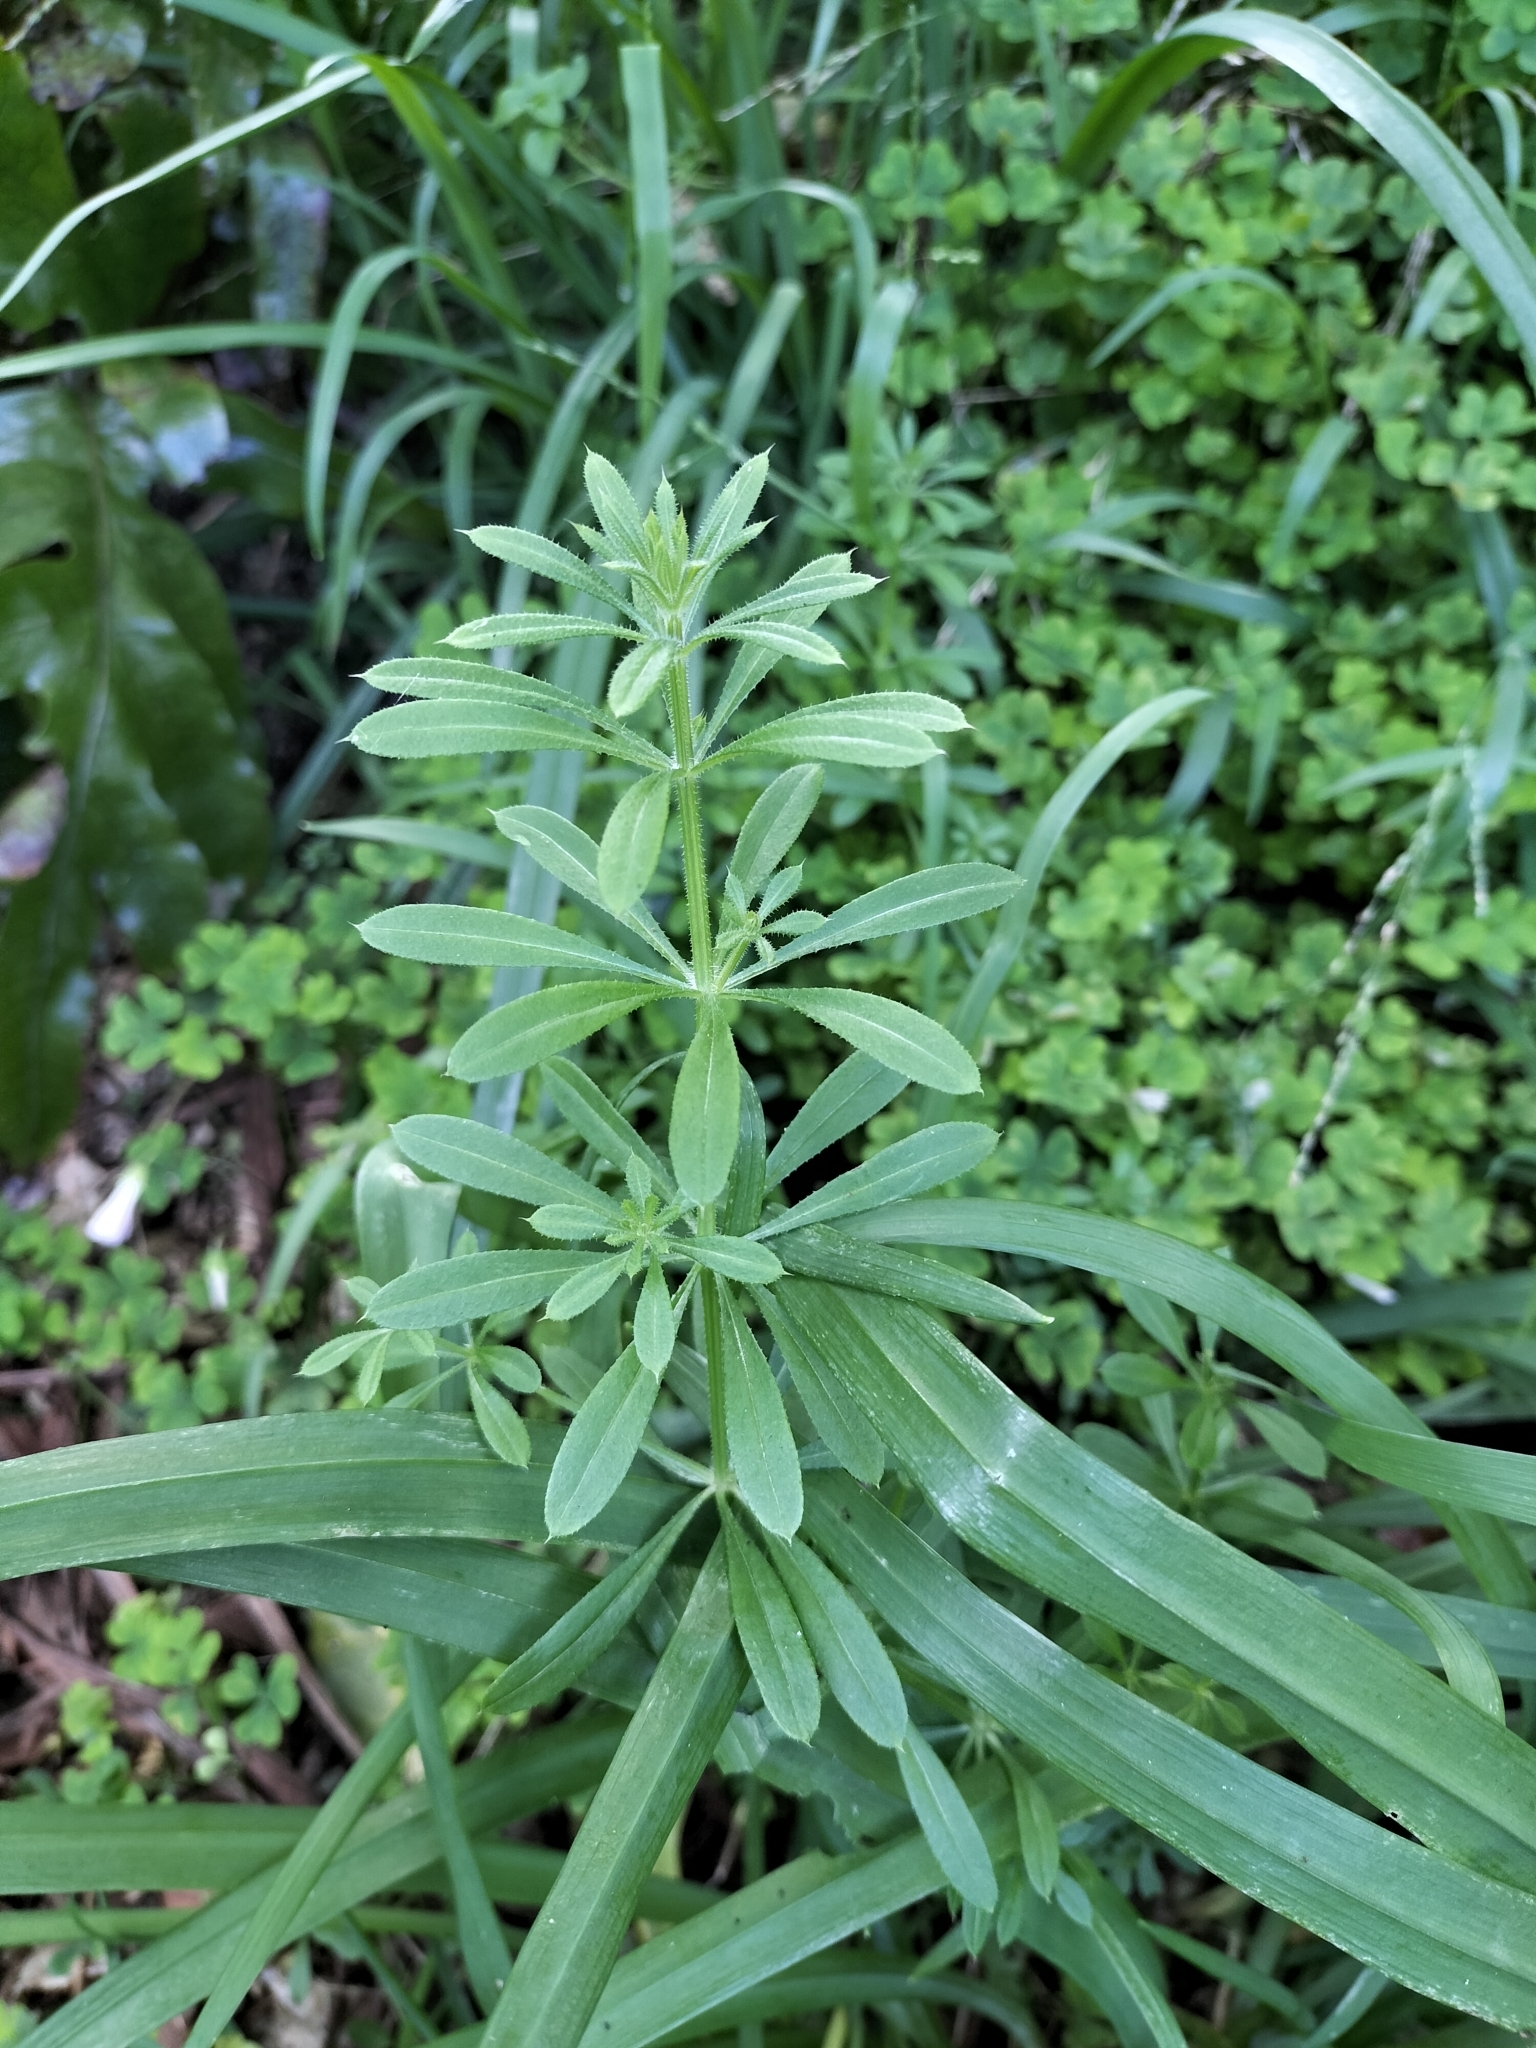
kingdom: Plantae
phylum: Tracheophyta
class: Magnoliopsida
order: Gentianales
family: Rubiaceae
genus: Galium
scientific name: Galium aparine
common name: Cleavers
